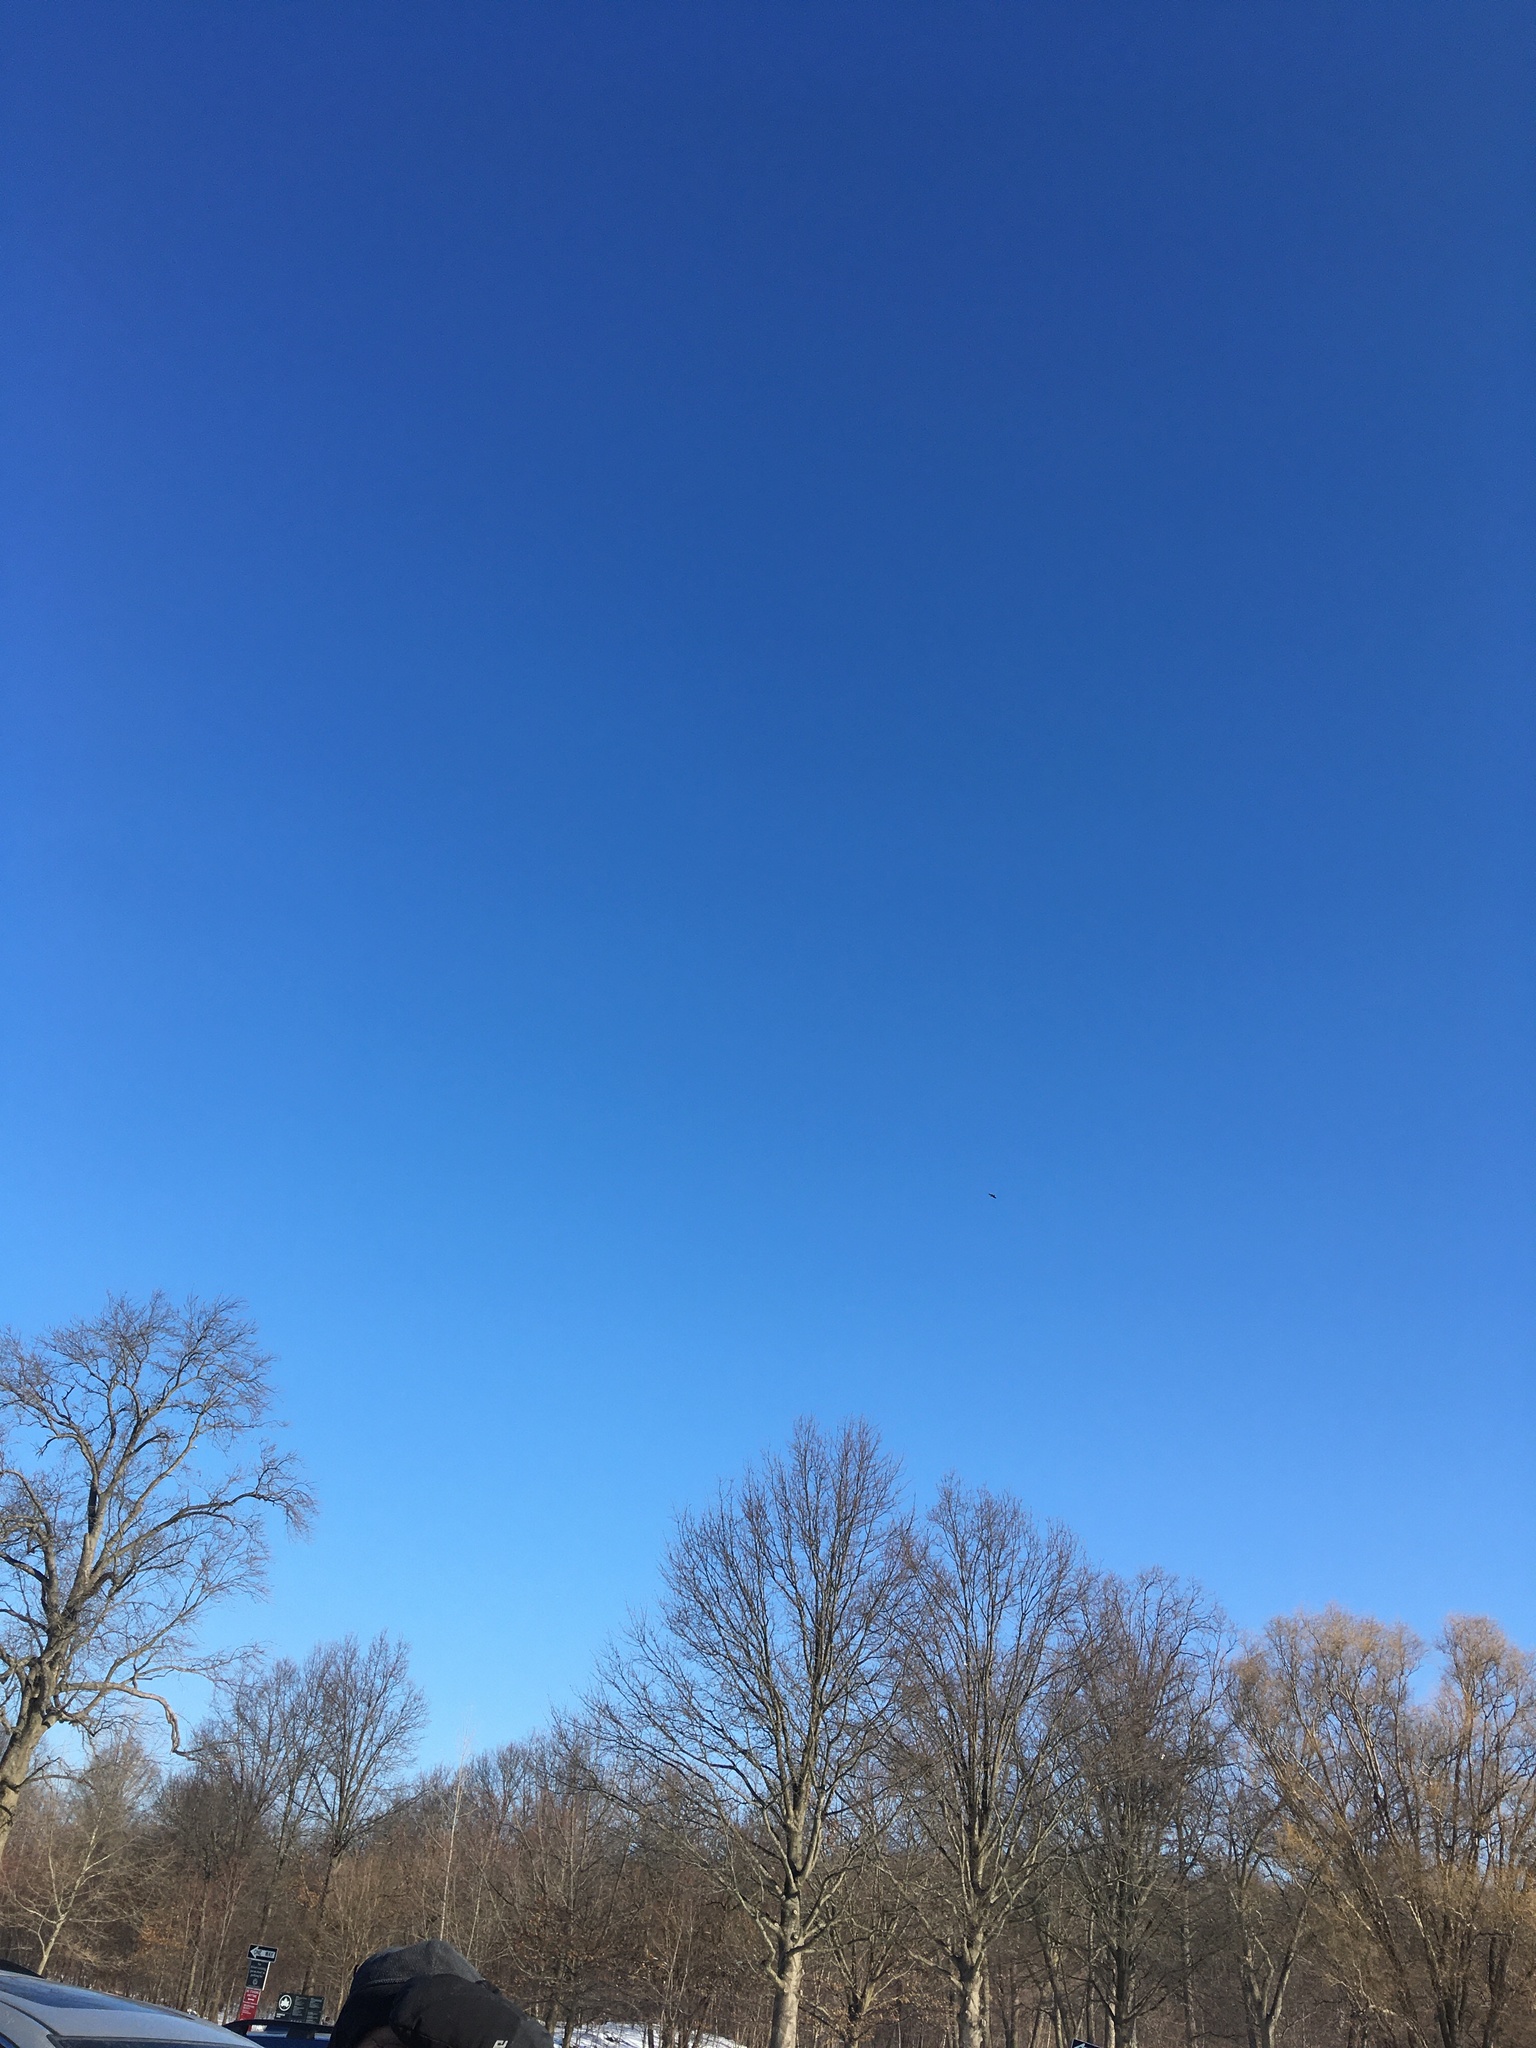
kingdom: Animalia
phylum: Chordata
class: Aves
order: Accipitriformes
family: Accipitridae
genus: Haliaeetus
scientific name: Haliaeetus leucocephalus
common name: Bald eagle
